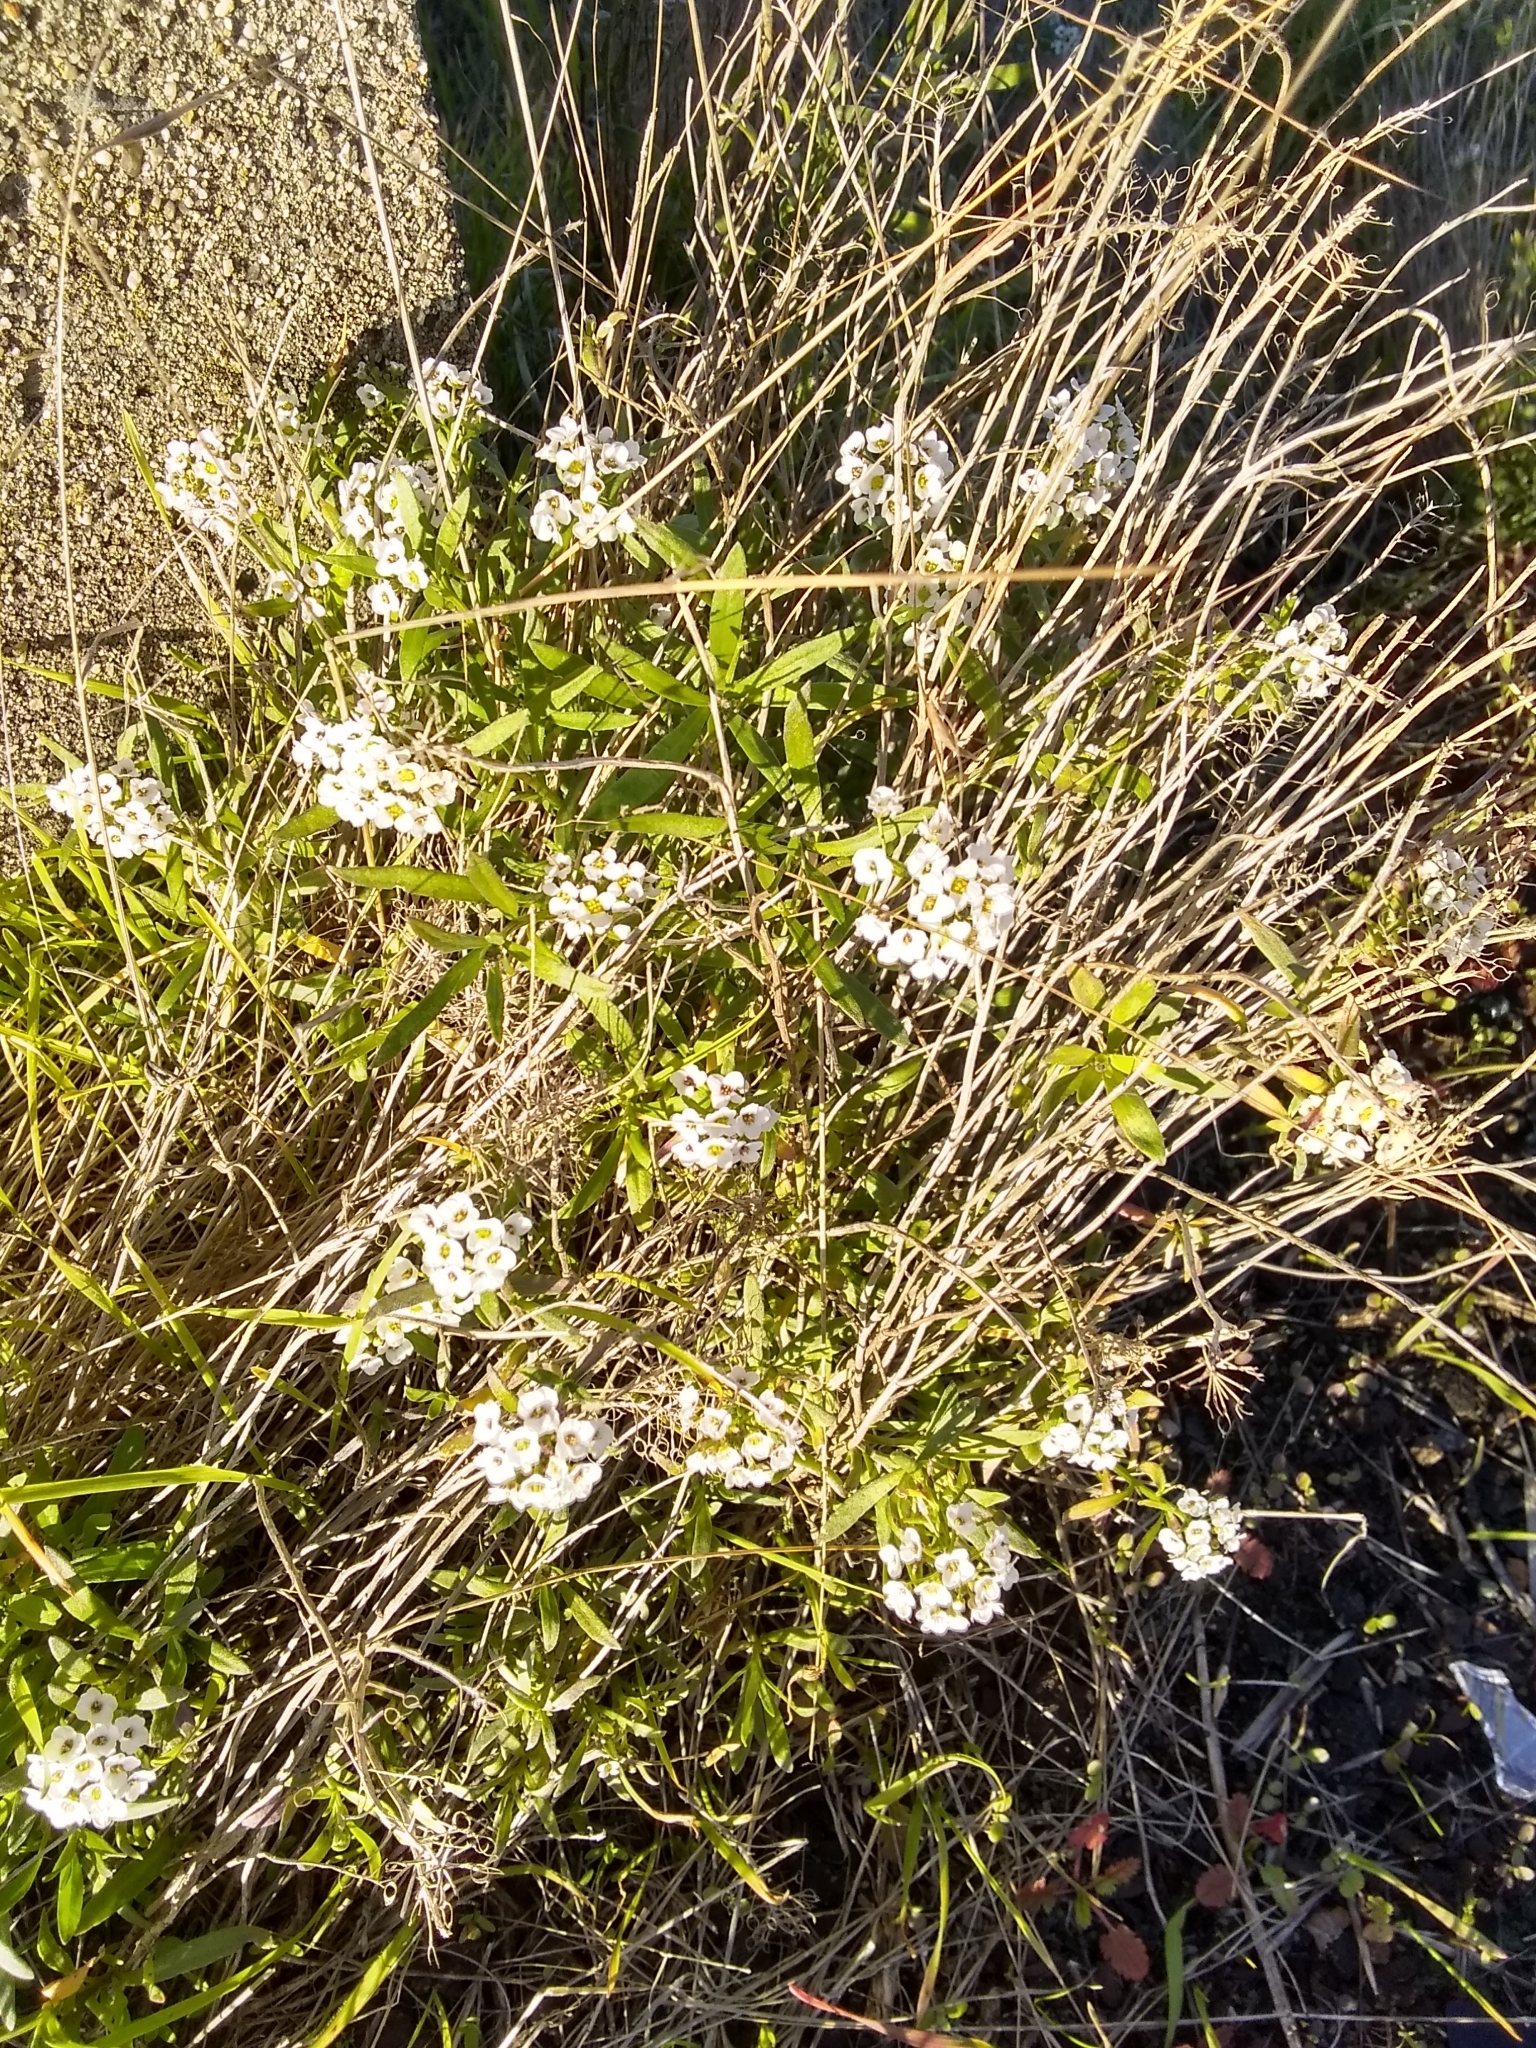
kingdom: Plantae
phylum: Tracheophyta
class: Magnoliopsida
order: Brassicales
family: Brassicaceae
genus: Lobularia
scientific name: Lobularia maritima
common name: Sweet alison
